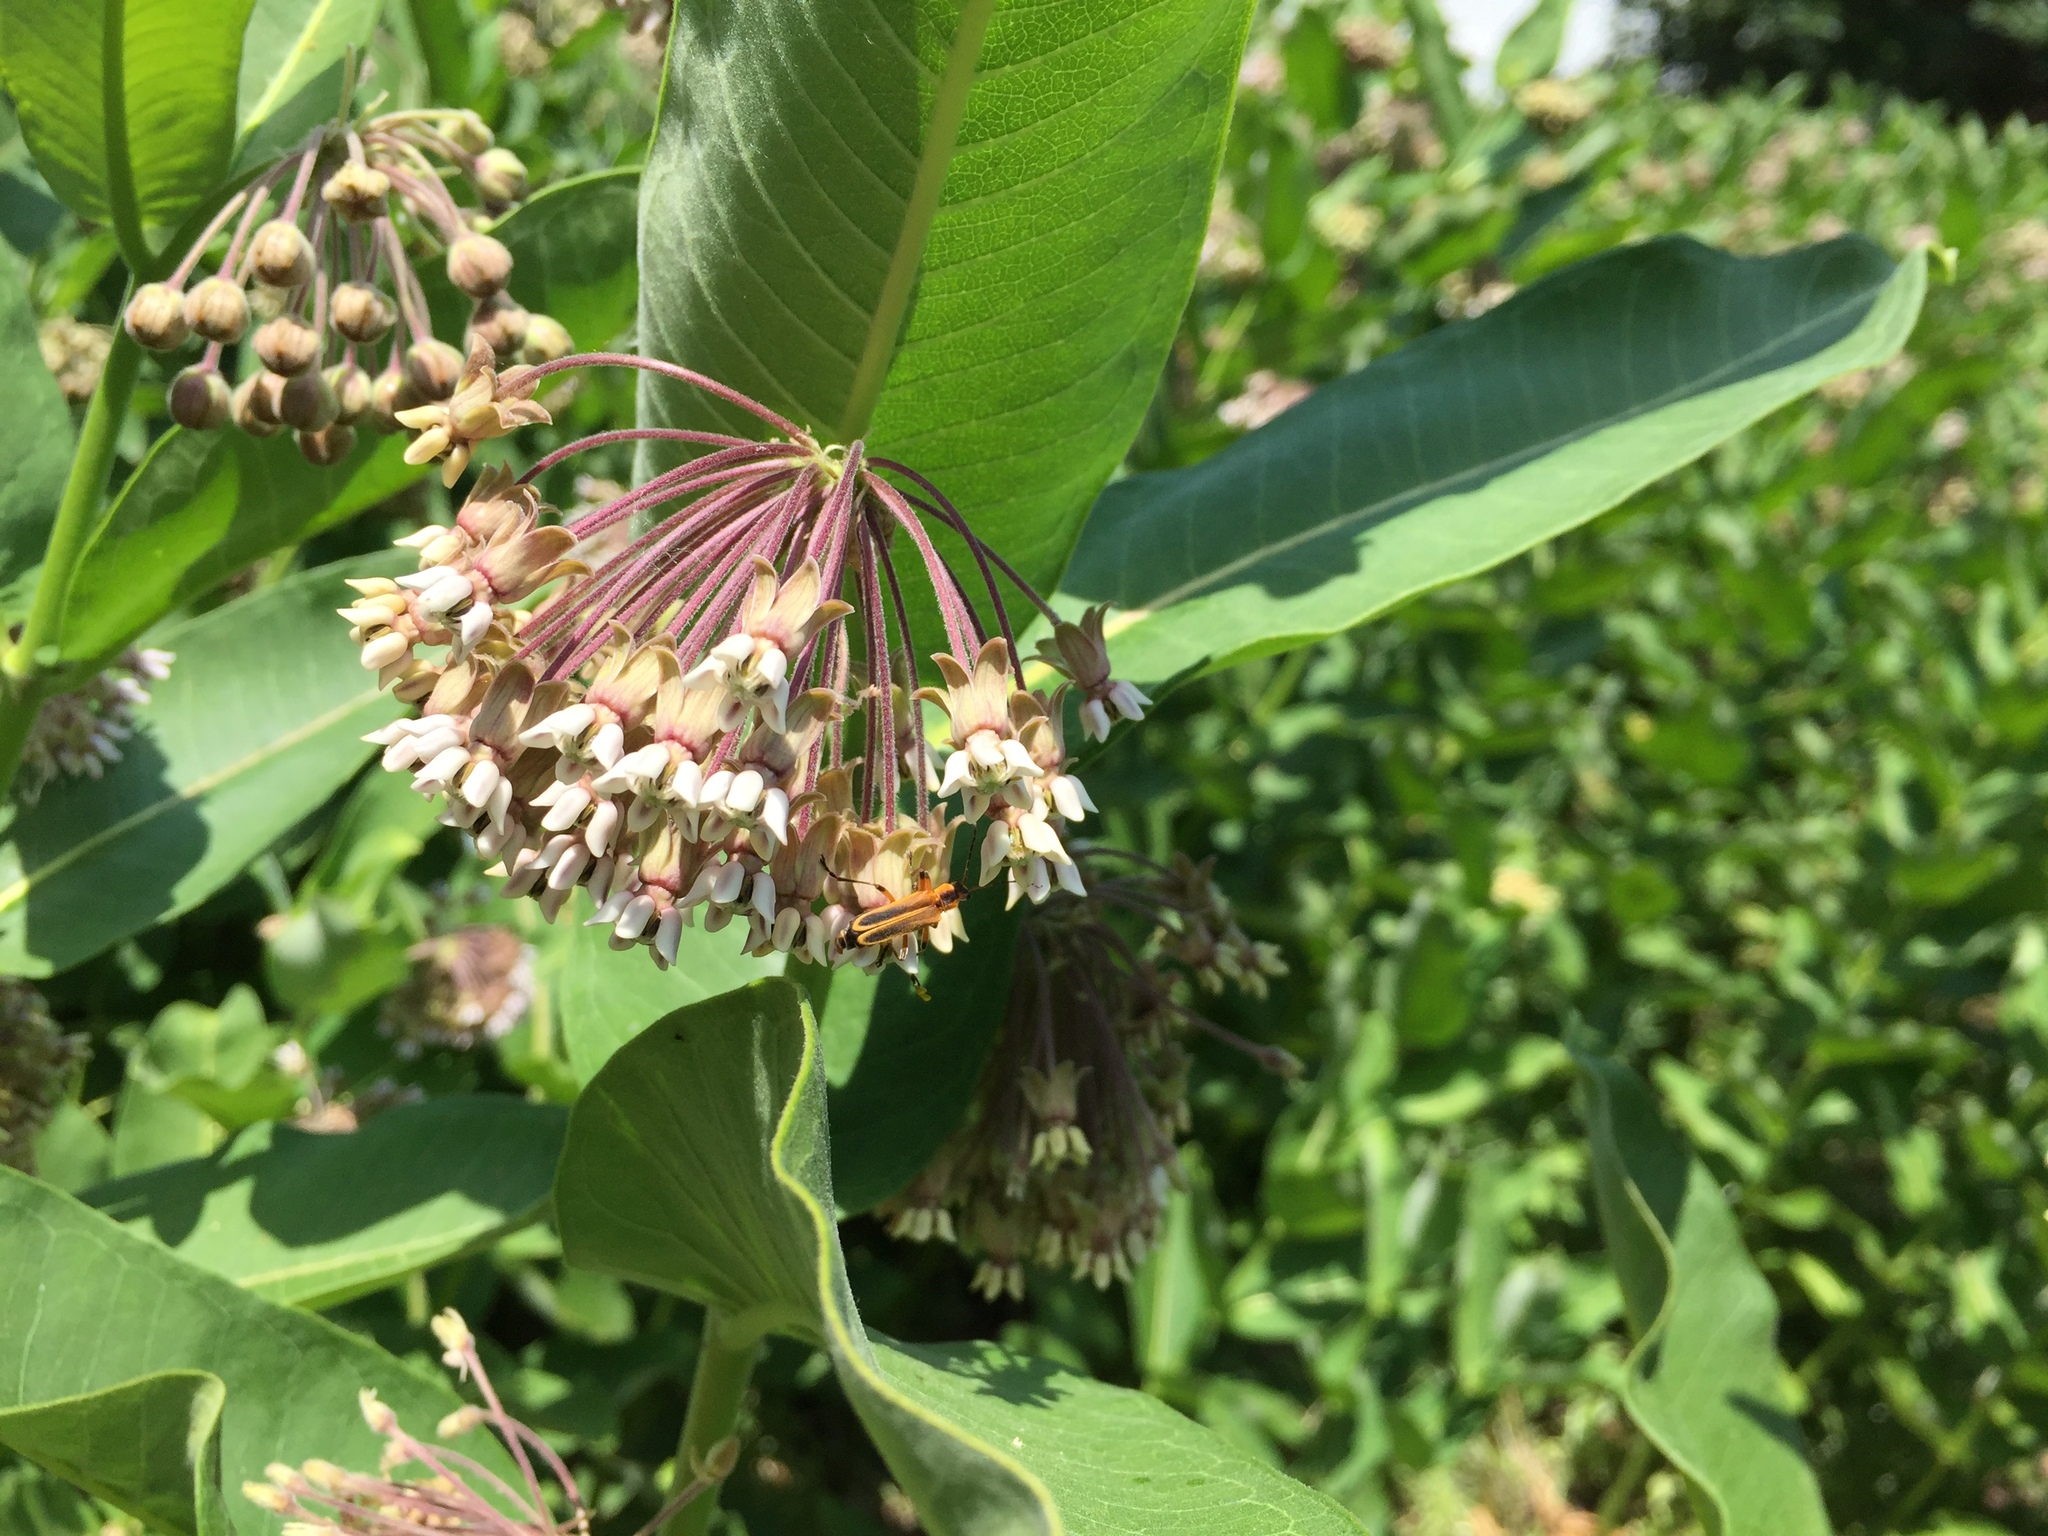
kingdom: Animalia
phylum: Arthropoda
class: Insecta
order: Coleoptera
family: Cantharidae
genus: Chauliognathus
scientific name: Chauliognathus marginatus
